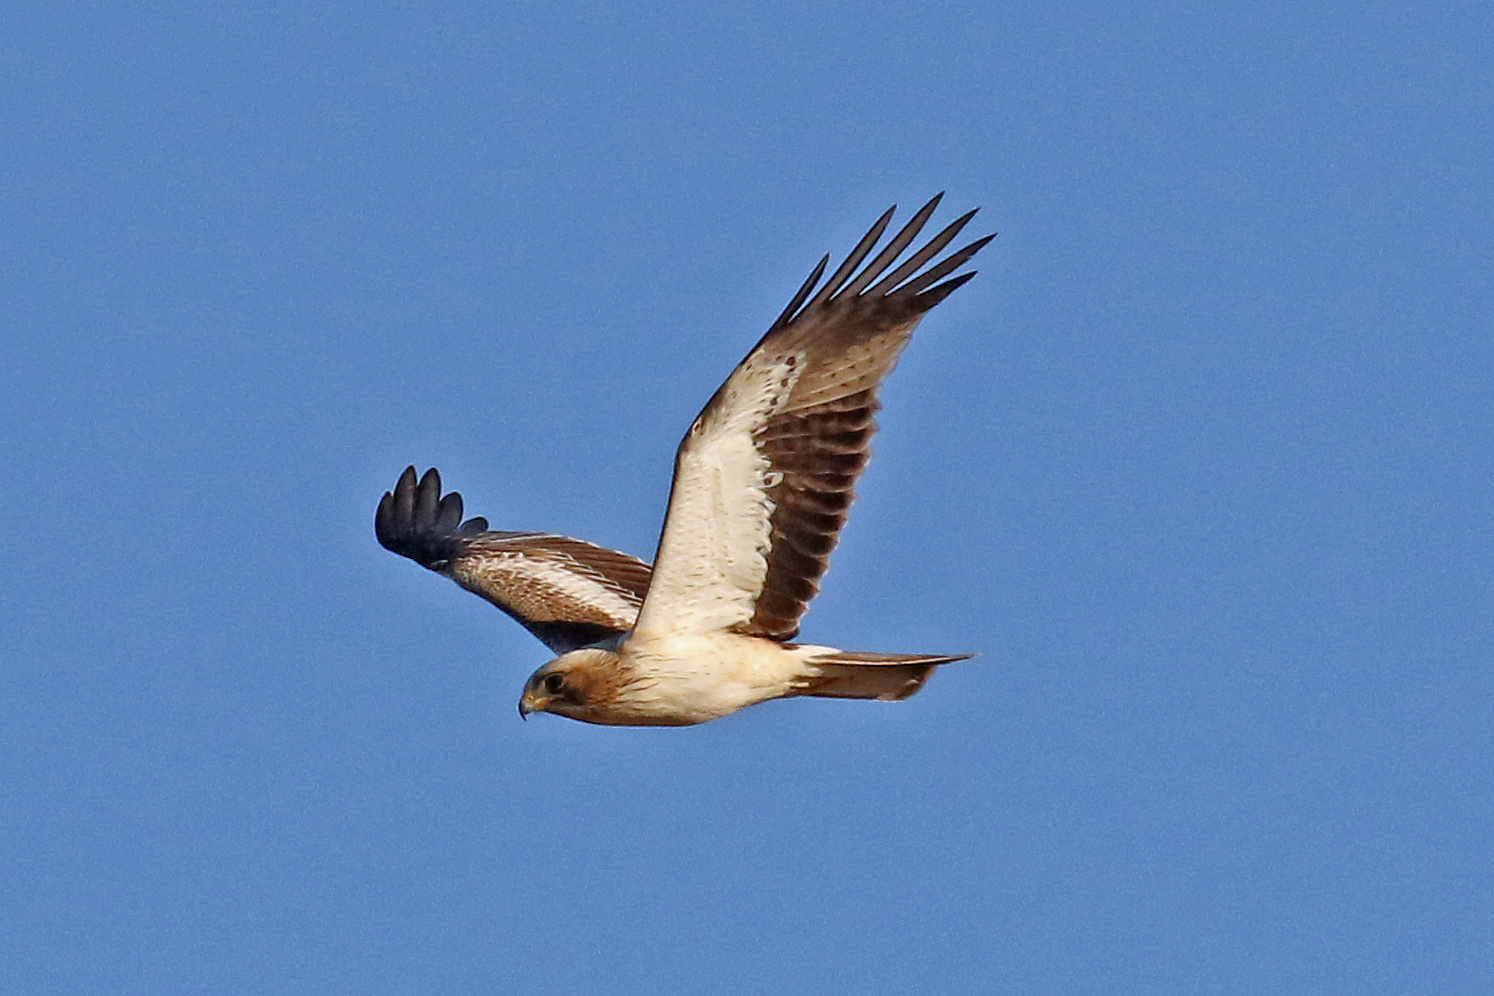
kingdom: Animalia
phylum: Chordata
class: Aves
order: Accipitriformes
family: Accipitridae
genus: Hieraaetus
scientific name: Hieraaetus pennatus
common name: Booted eagle
